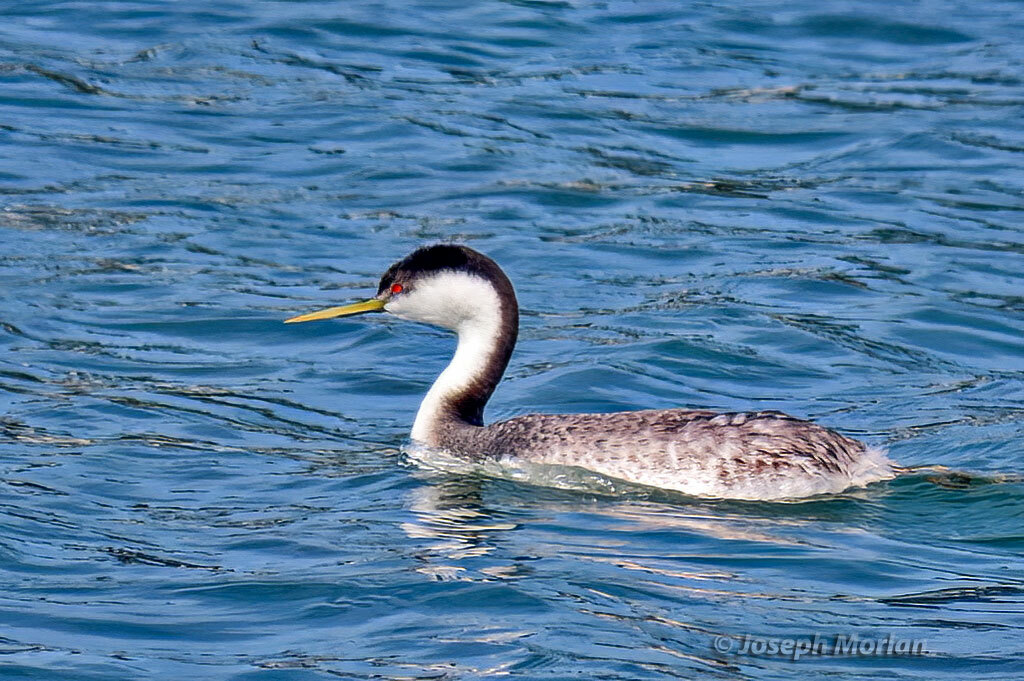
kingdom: Animalia
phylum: Chordata
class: Aves
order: Podicipediformes
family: Podicipedidae
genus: Aechmophorus
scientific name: Aechmophorus occidentalis
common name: Western grebe
